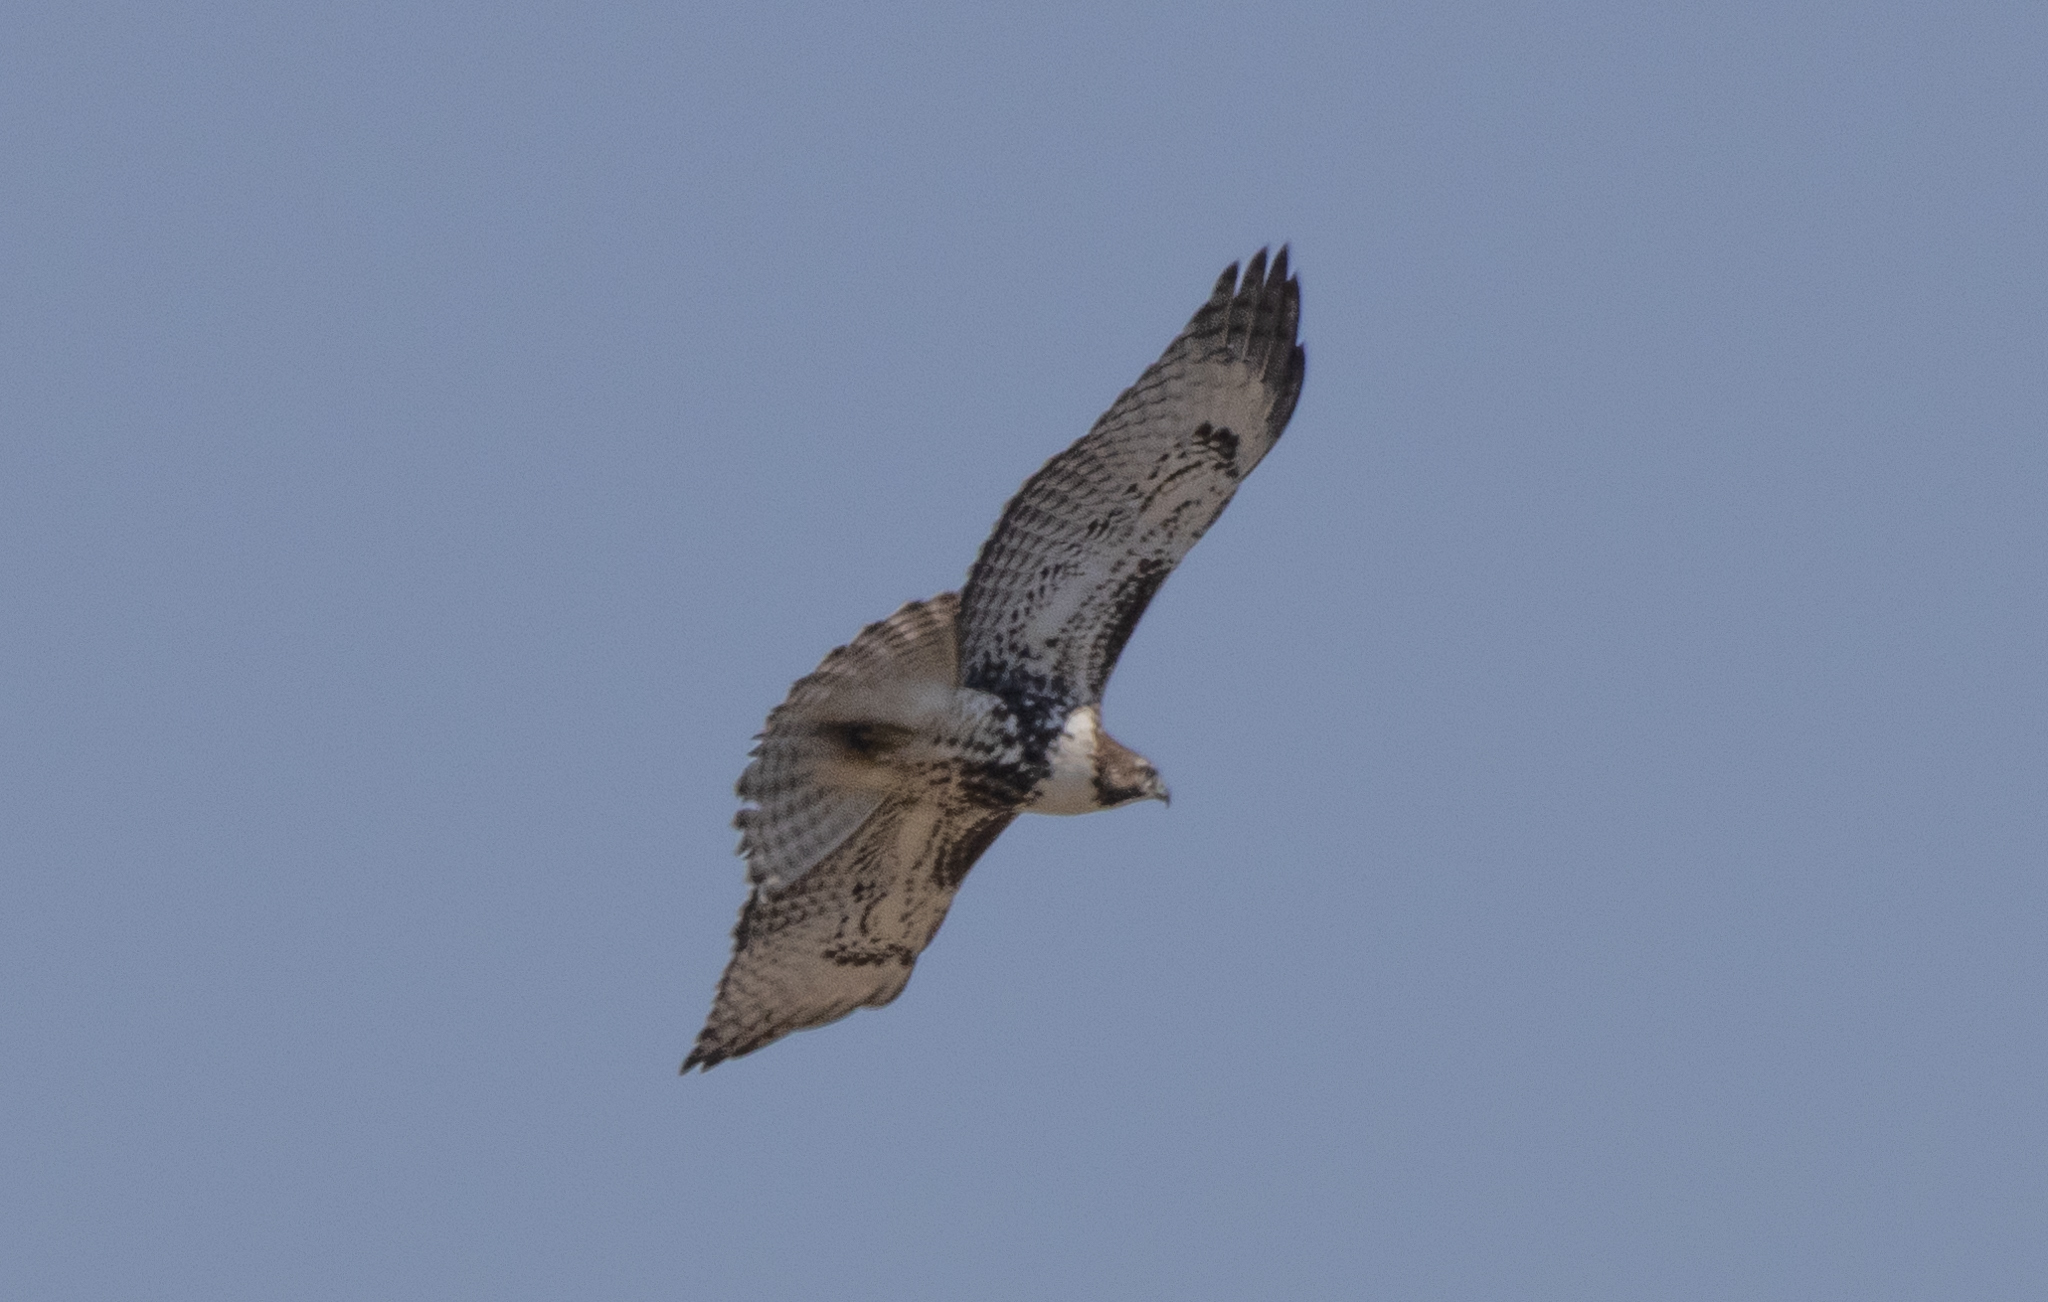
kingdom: Animalia
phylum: Chordata
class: Aves
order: Accipitriformes
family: Accipitridae
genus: Buteo
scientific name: Buteo jamaicensis
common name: Red-tailed hawk
